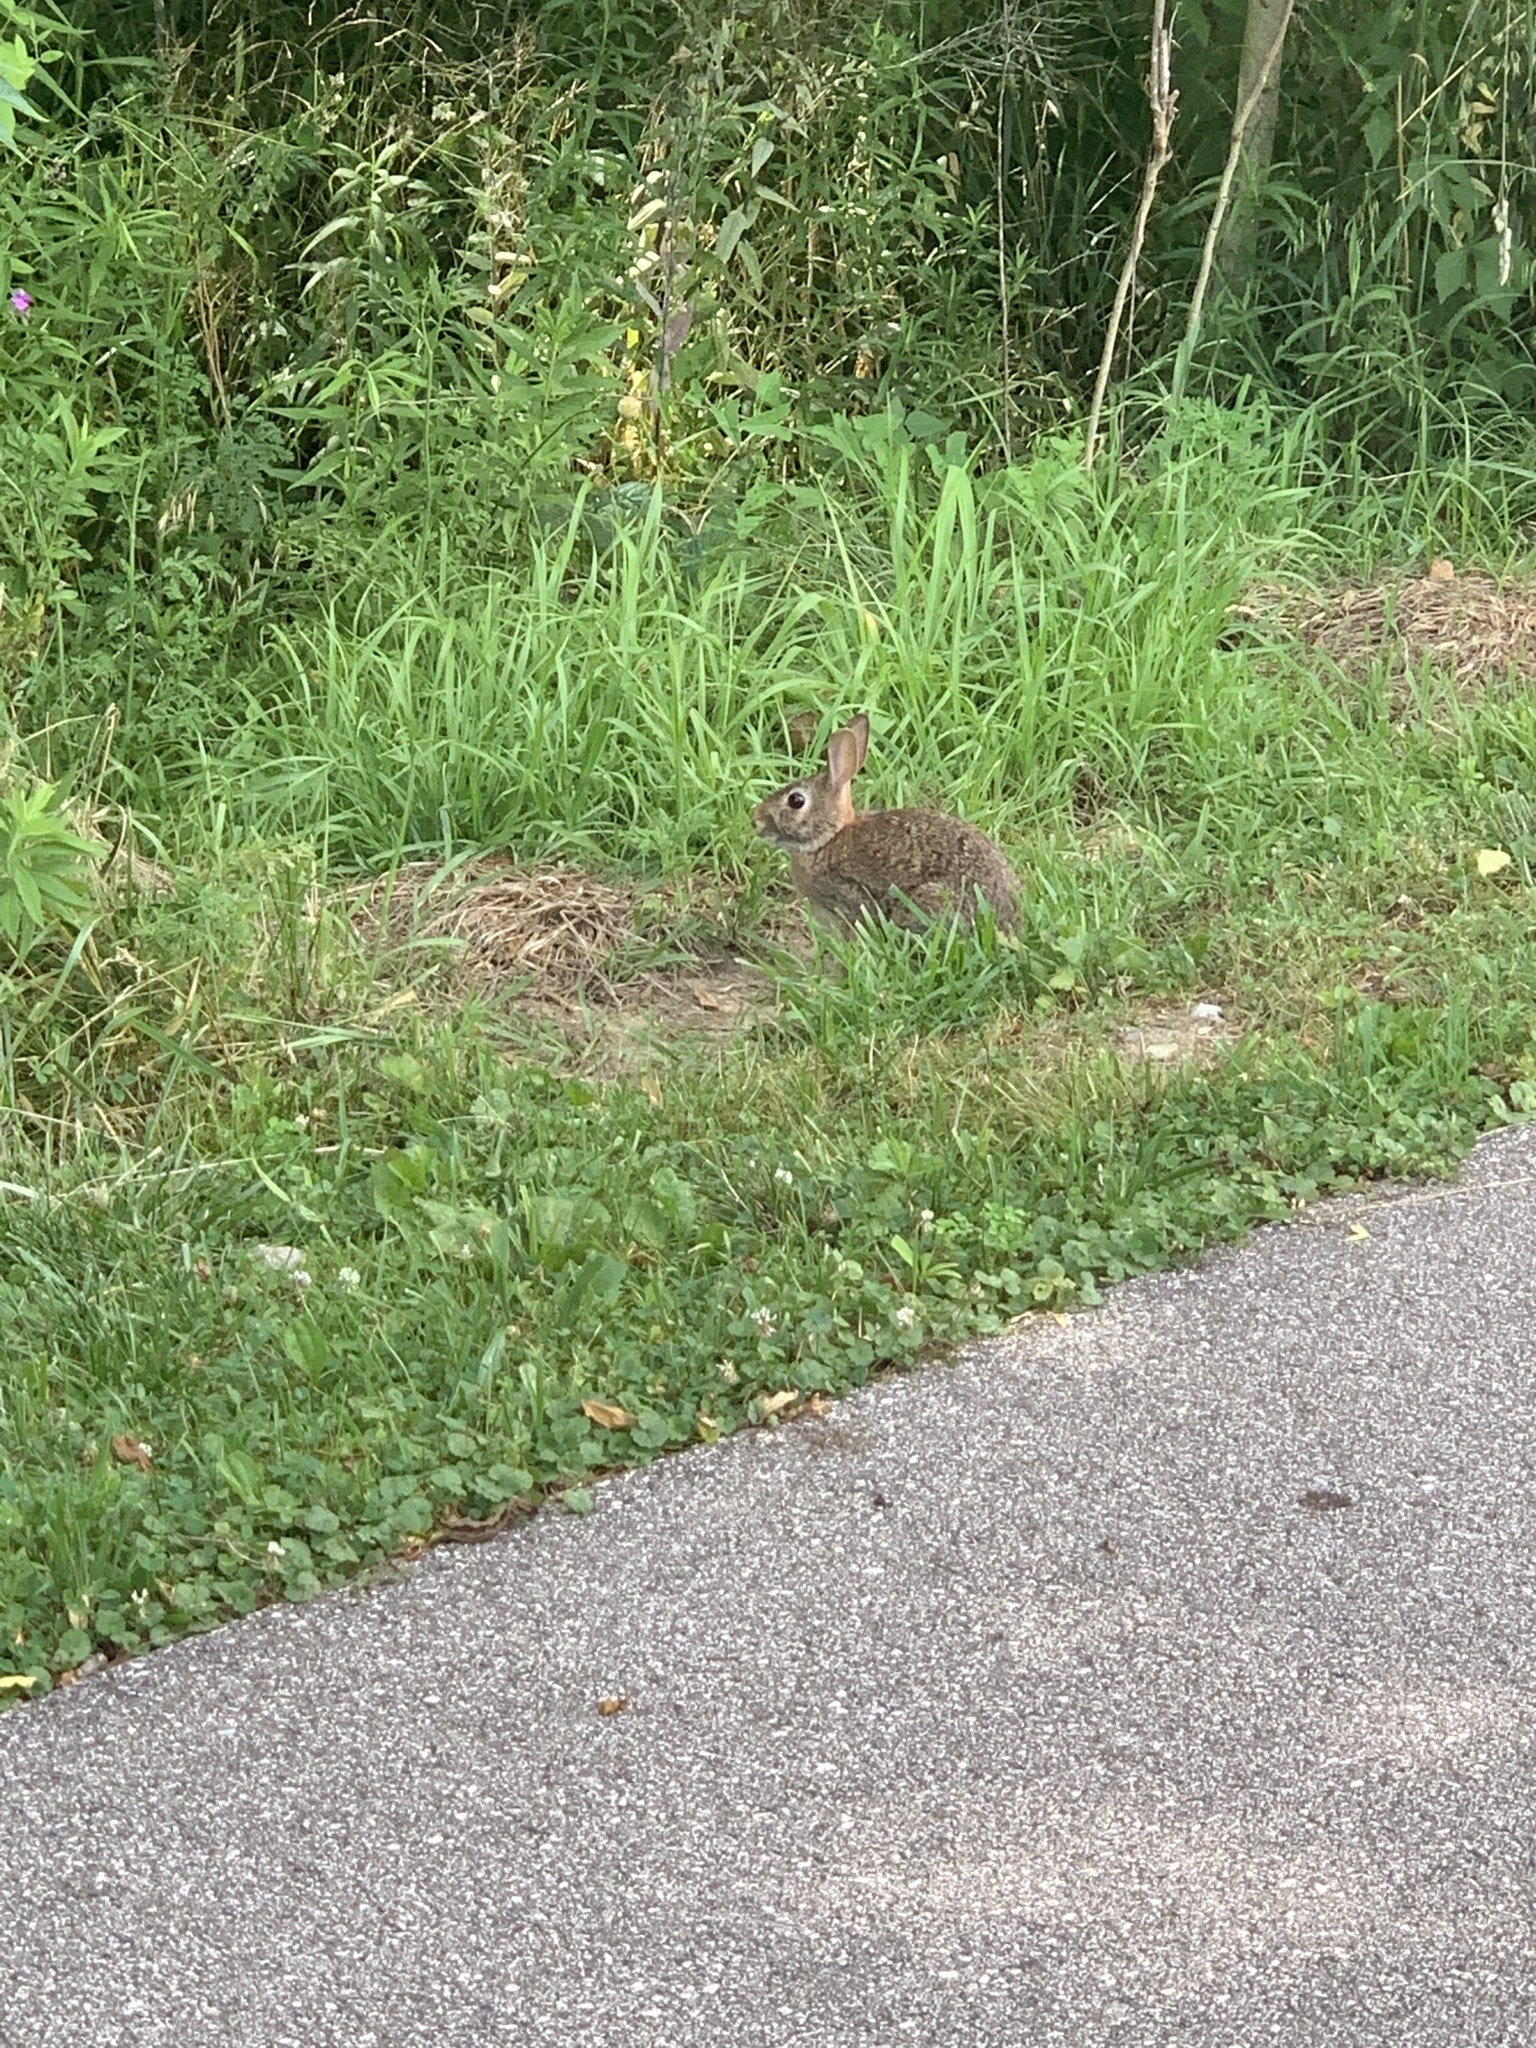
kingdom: Animalia
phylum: Chordata
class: Mammalia
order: Lagomorpha
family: Leporidae
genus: Sylvilagus
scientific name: Sylvilagus floridanus
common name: Eastern cottontail
